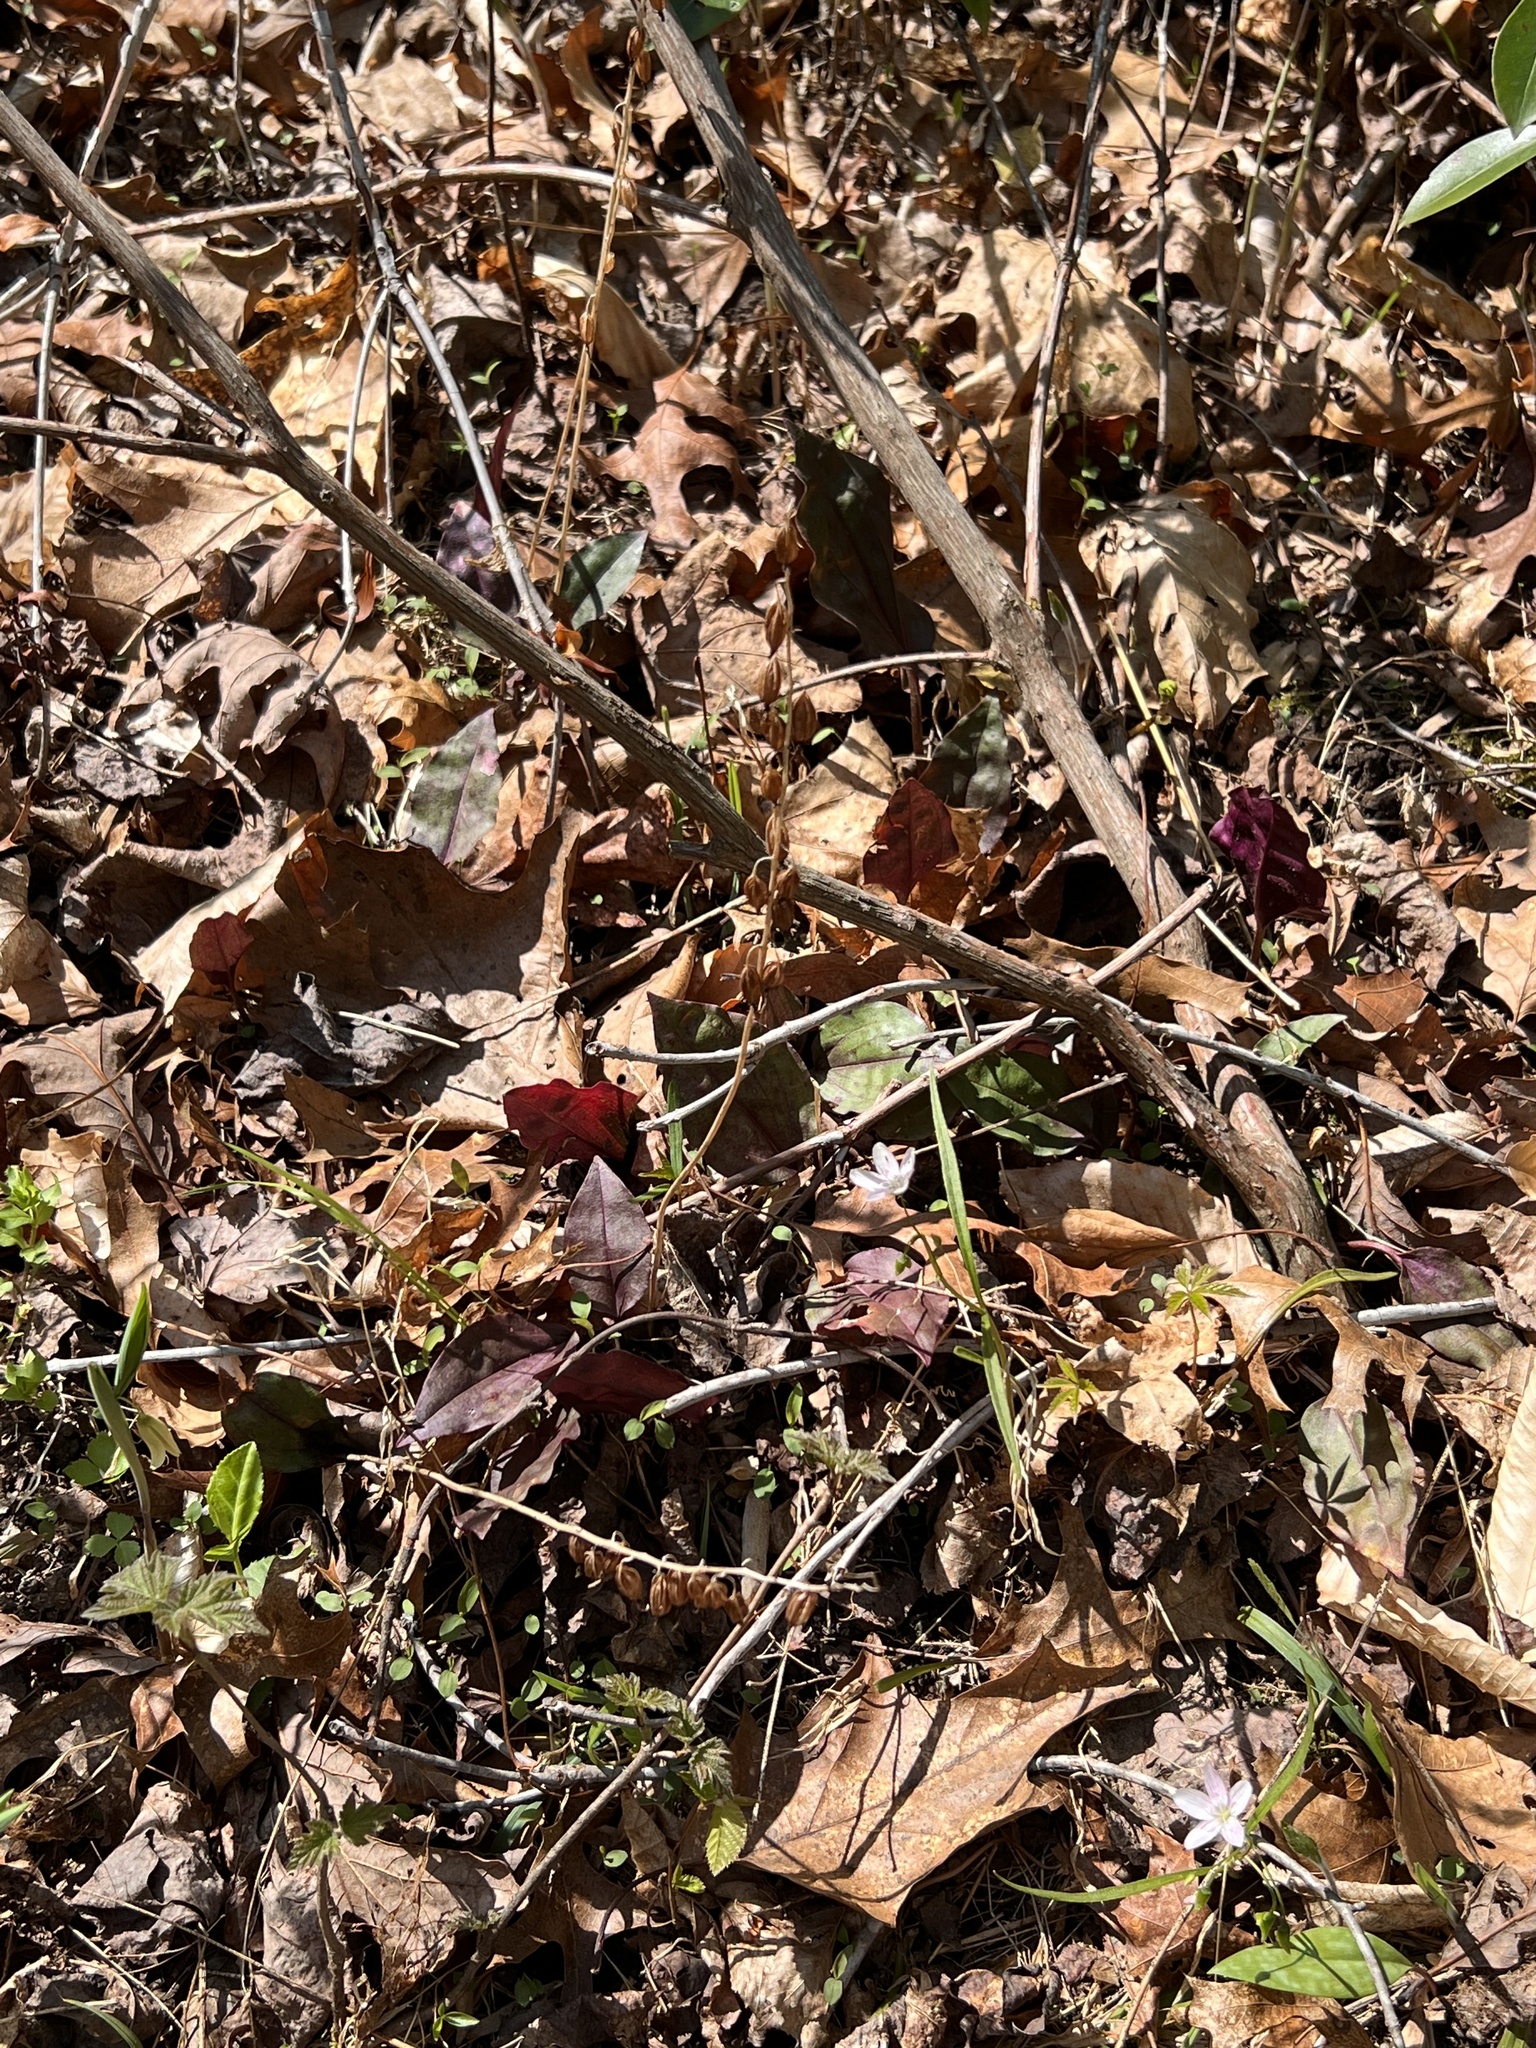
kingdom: Plantae
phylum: Tracheophyta
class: Liliopsida
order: Asparagales
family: Orchidaceae
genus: Tipularia
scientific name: Tipularia discolor
